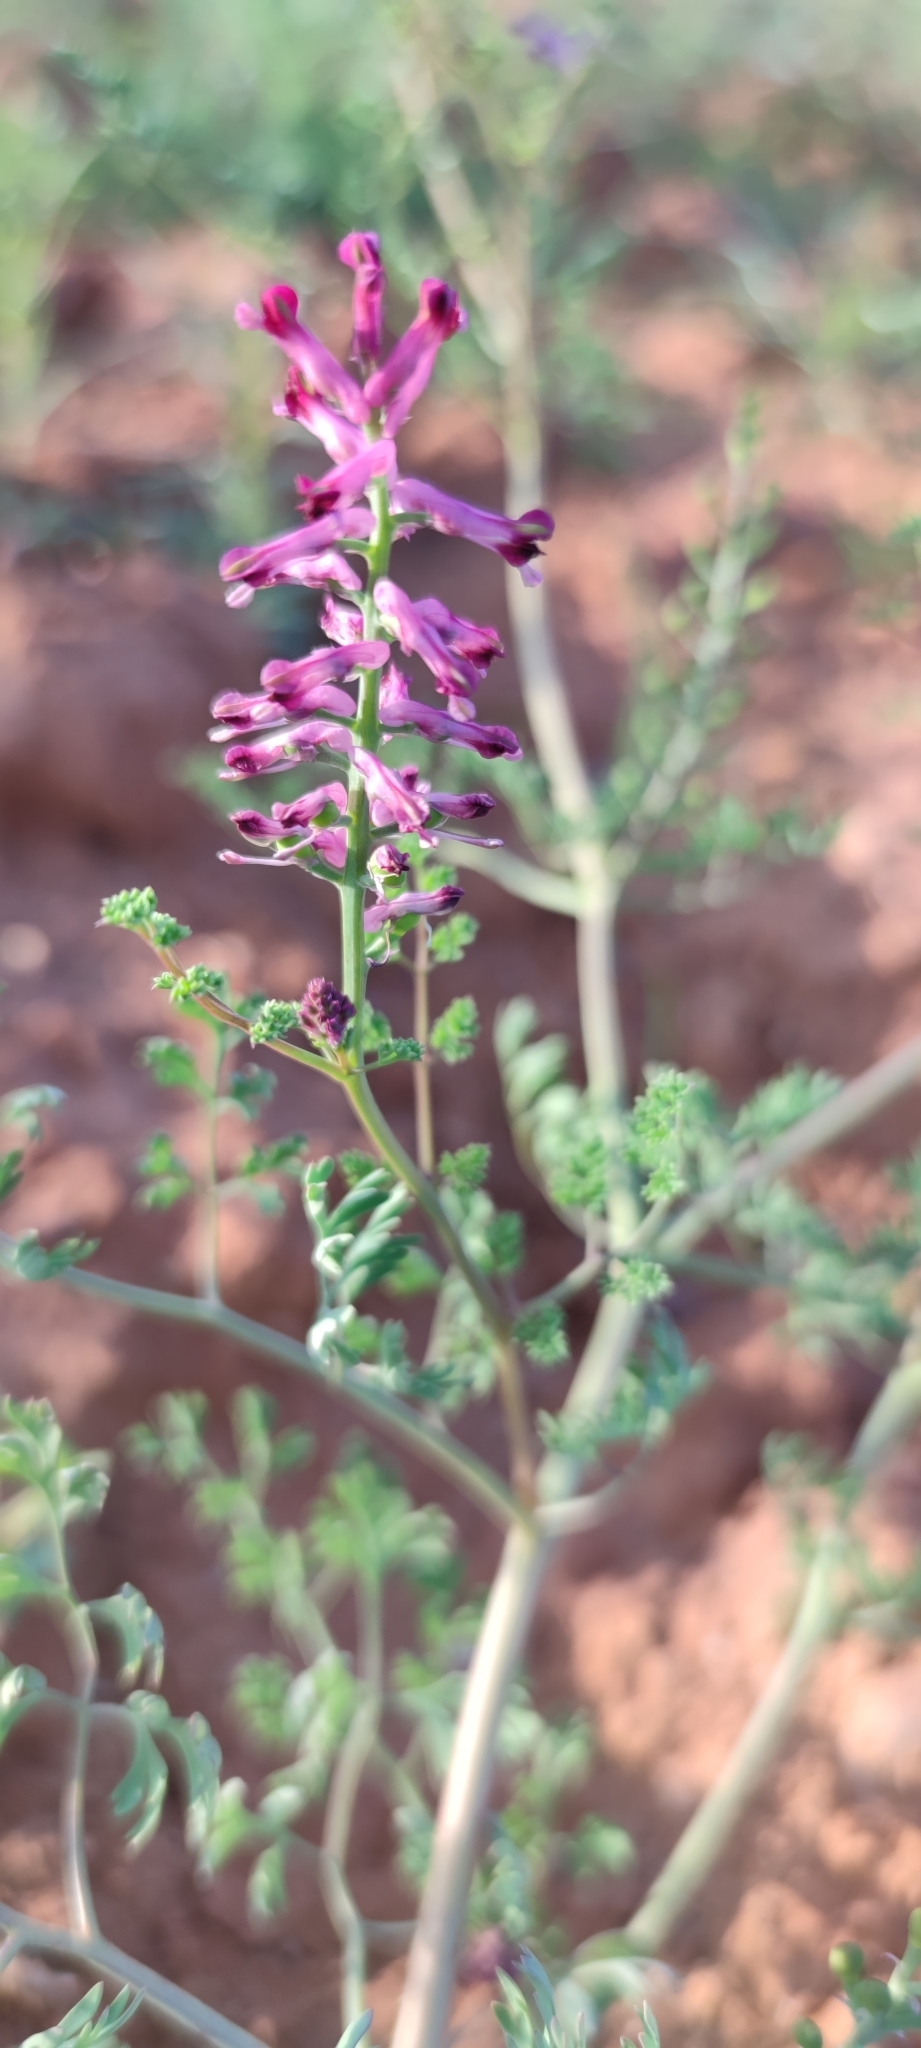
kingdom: Plantae
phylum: Tracheophyta
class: Magnoliopsida
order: Ranunculales
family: Papaveraceae
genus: Fumaria
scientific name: Fumaria officinalis
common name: Common fumitory
